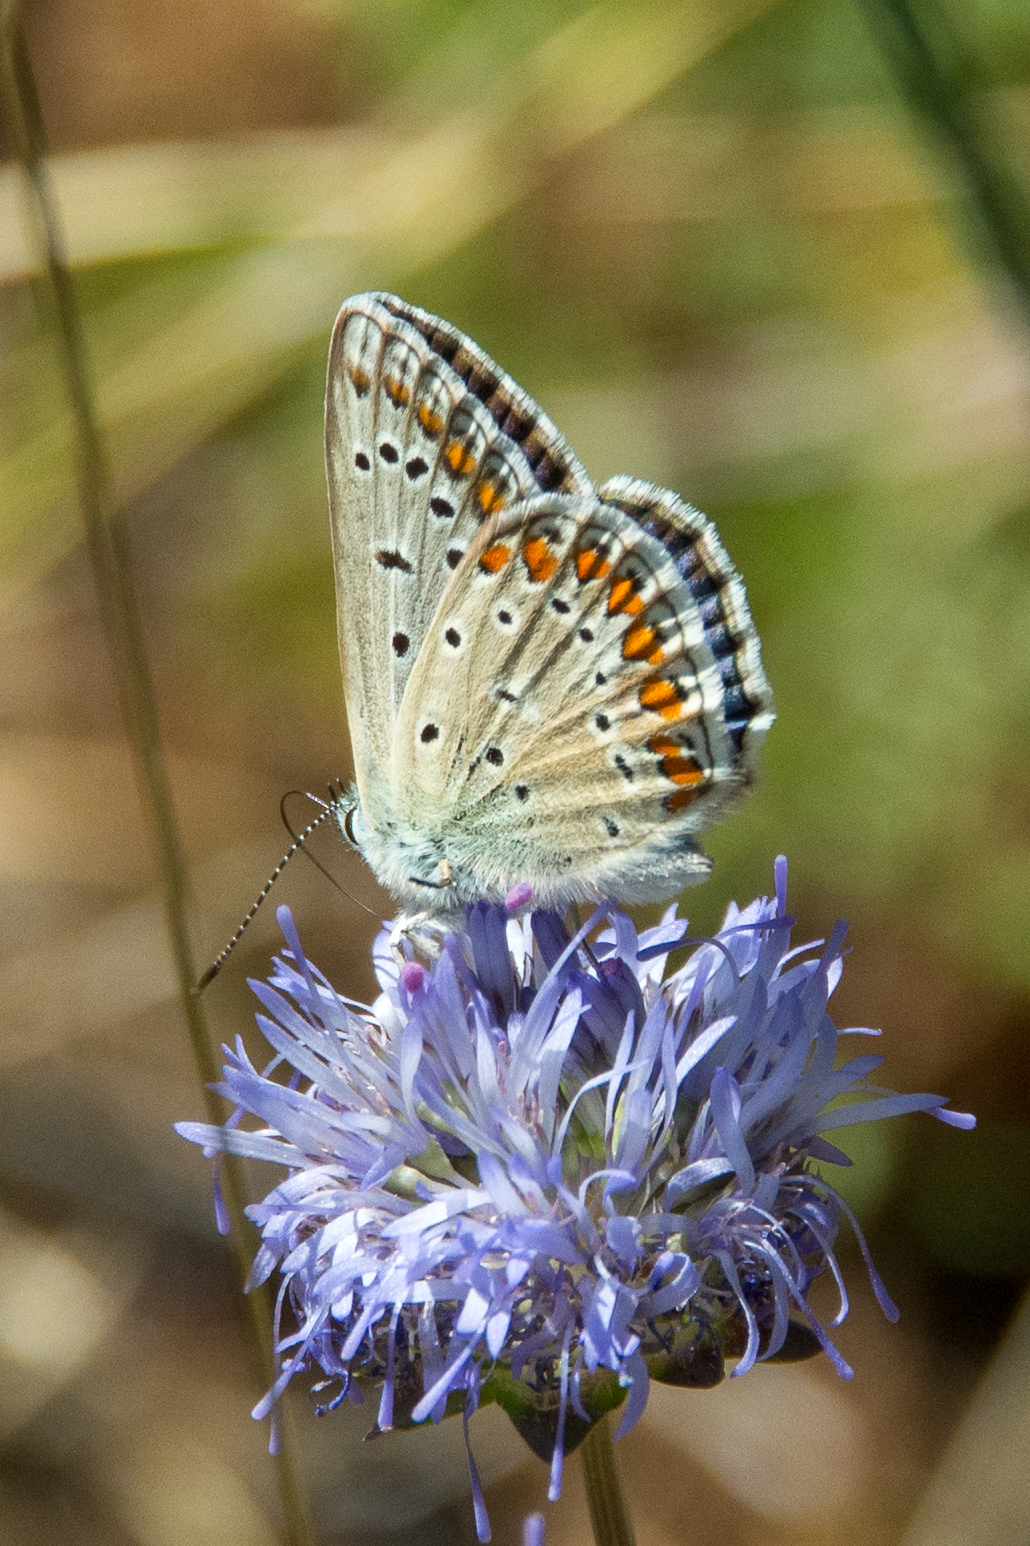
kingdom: Animalia
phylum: Arthropoda
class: Insecta
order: Lepidoptera
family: Lycaenidae
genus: Polyommatus
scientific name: Polyommatus celina
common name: Austaut's blue
